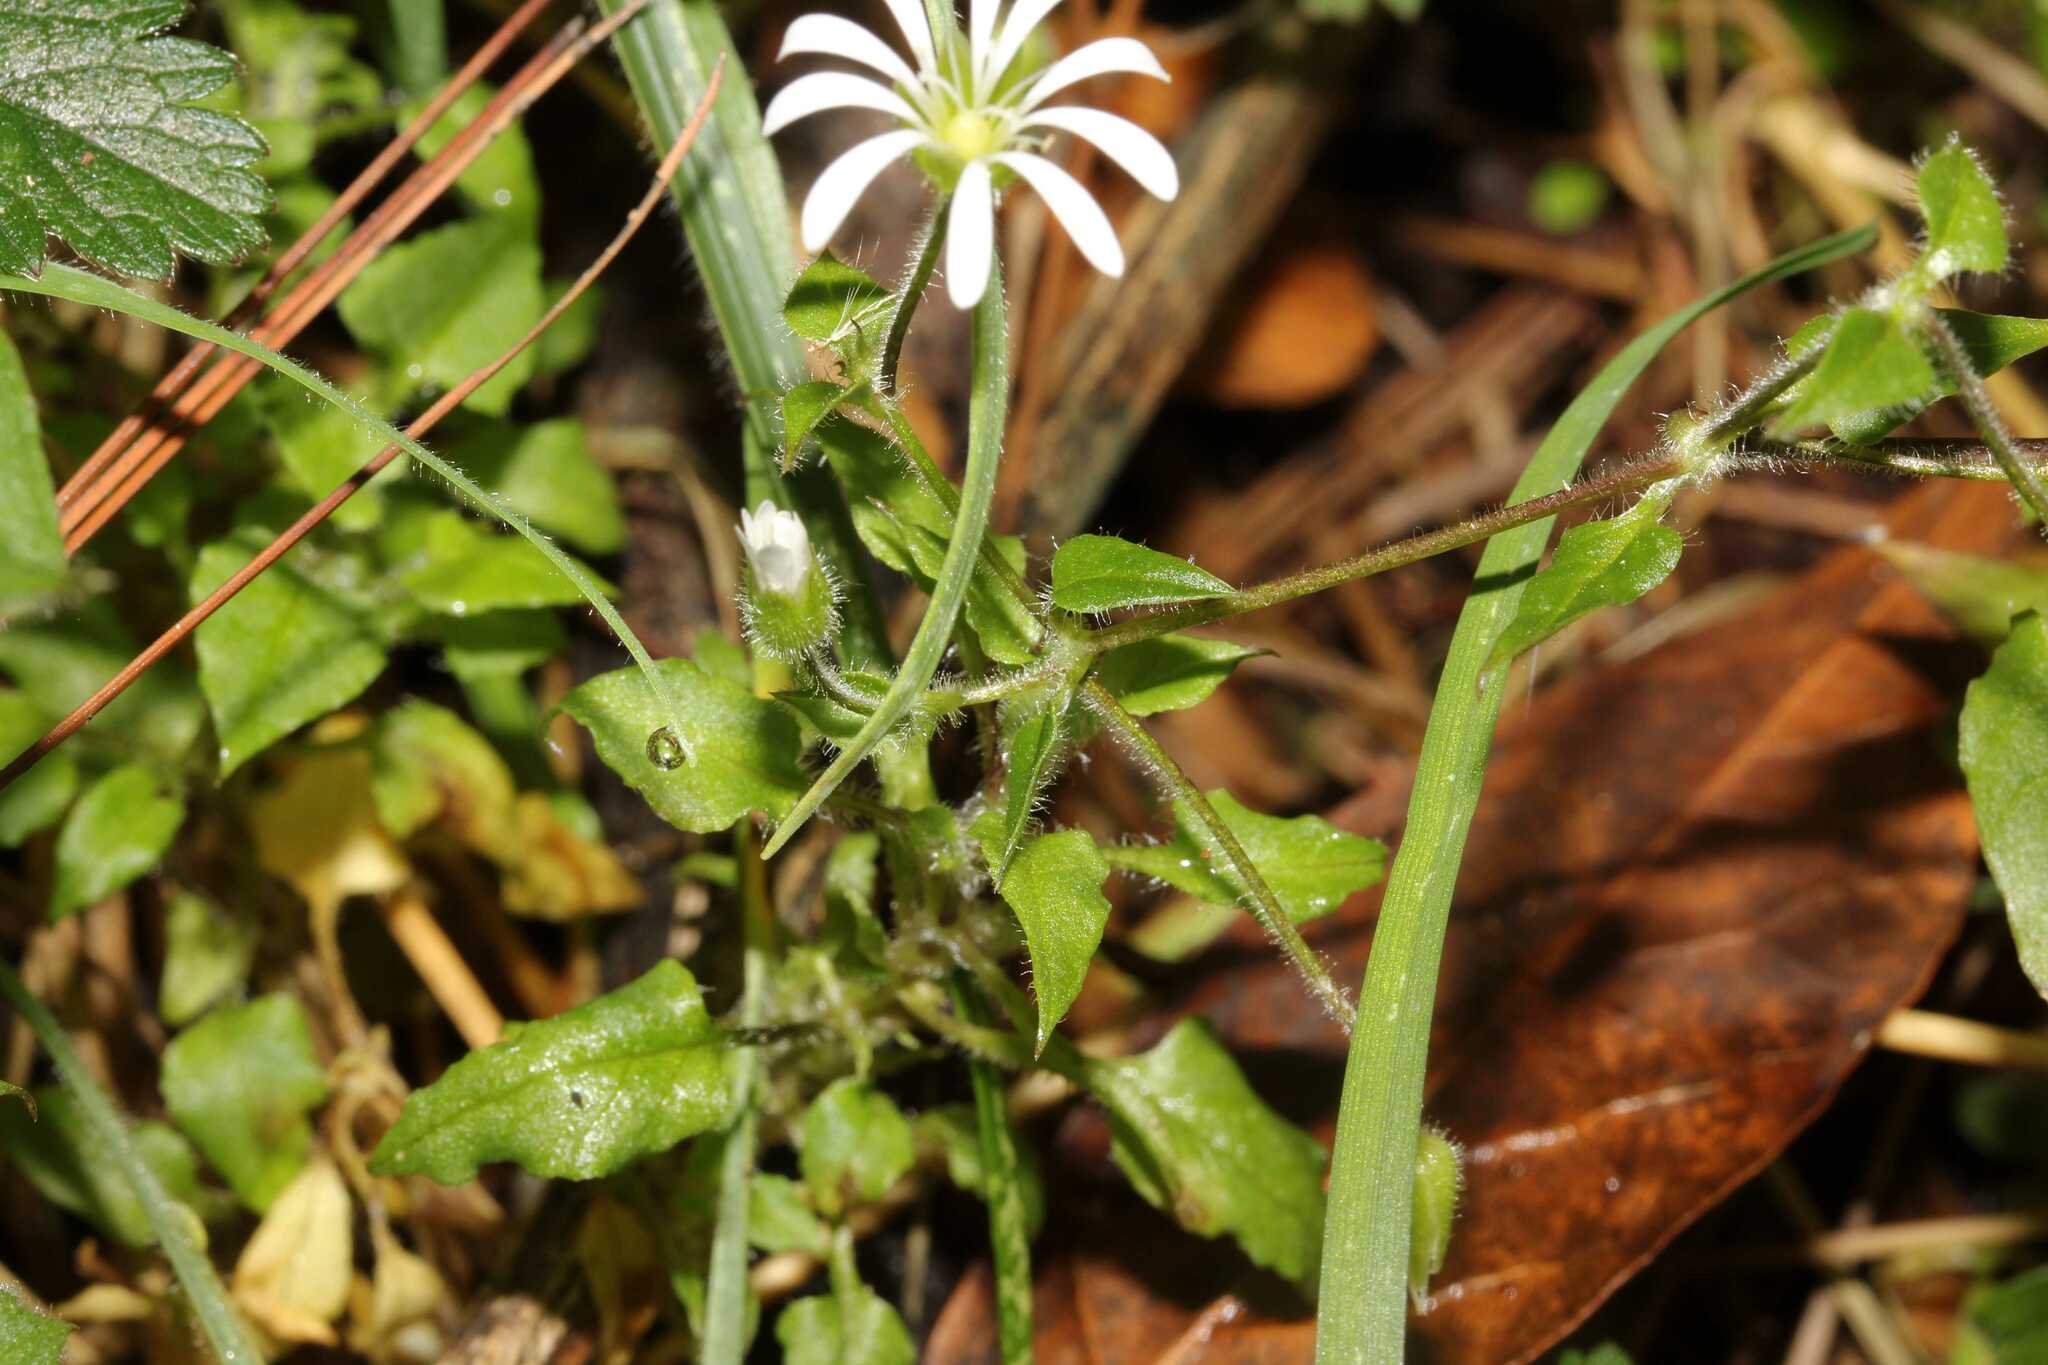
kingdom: Plantae
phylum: Tracheophyta
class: Magnoliopsida
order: Caryophyllales
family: Caryophyllaceae
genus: Stellaria
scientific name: Stellaria cuspidata
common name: Mexican chickweed
